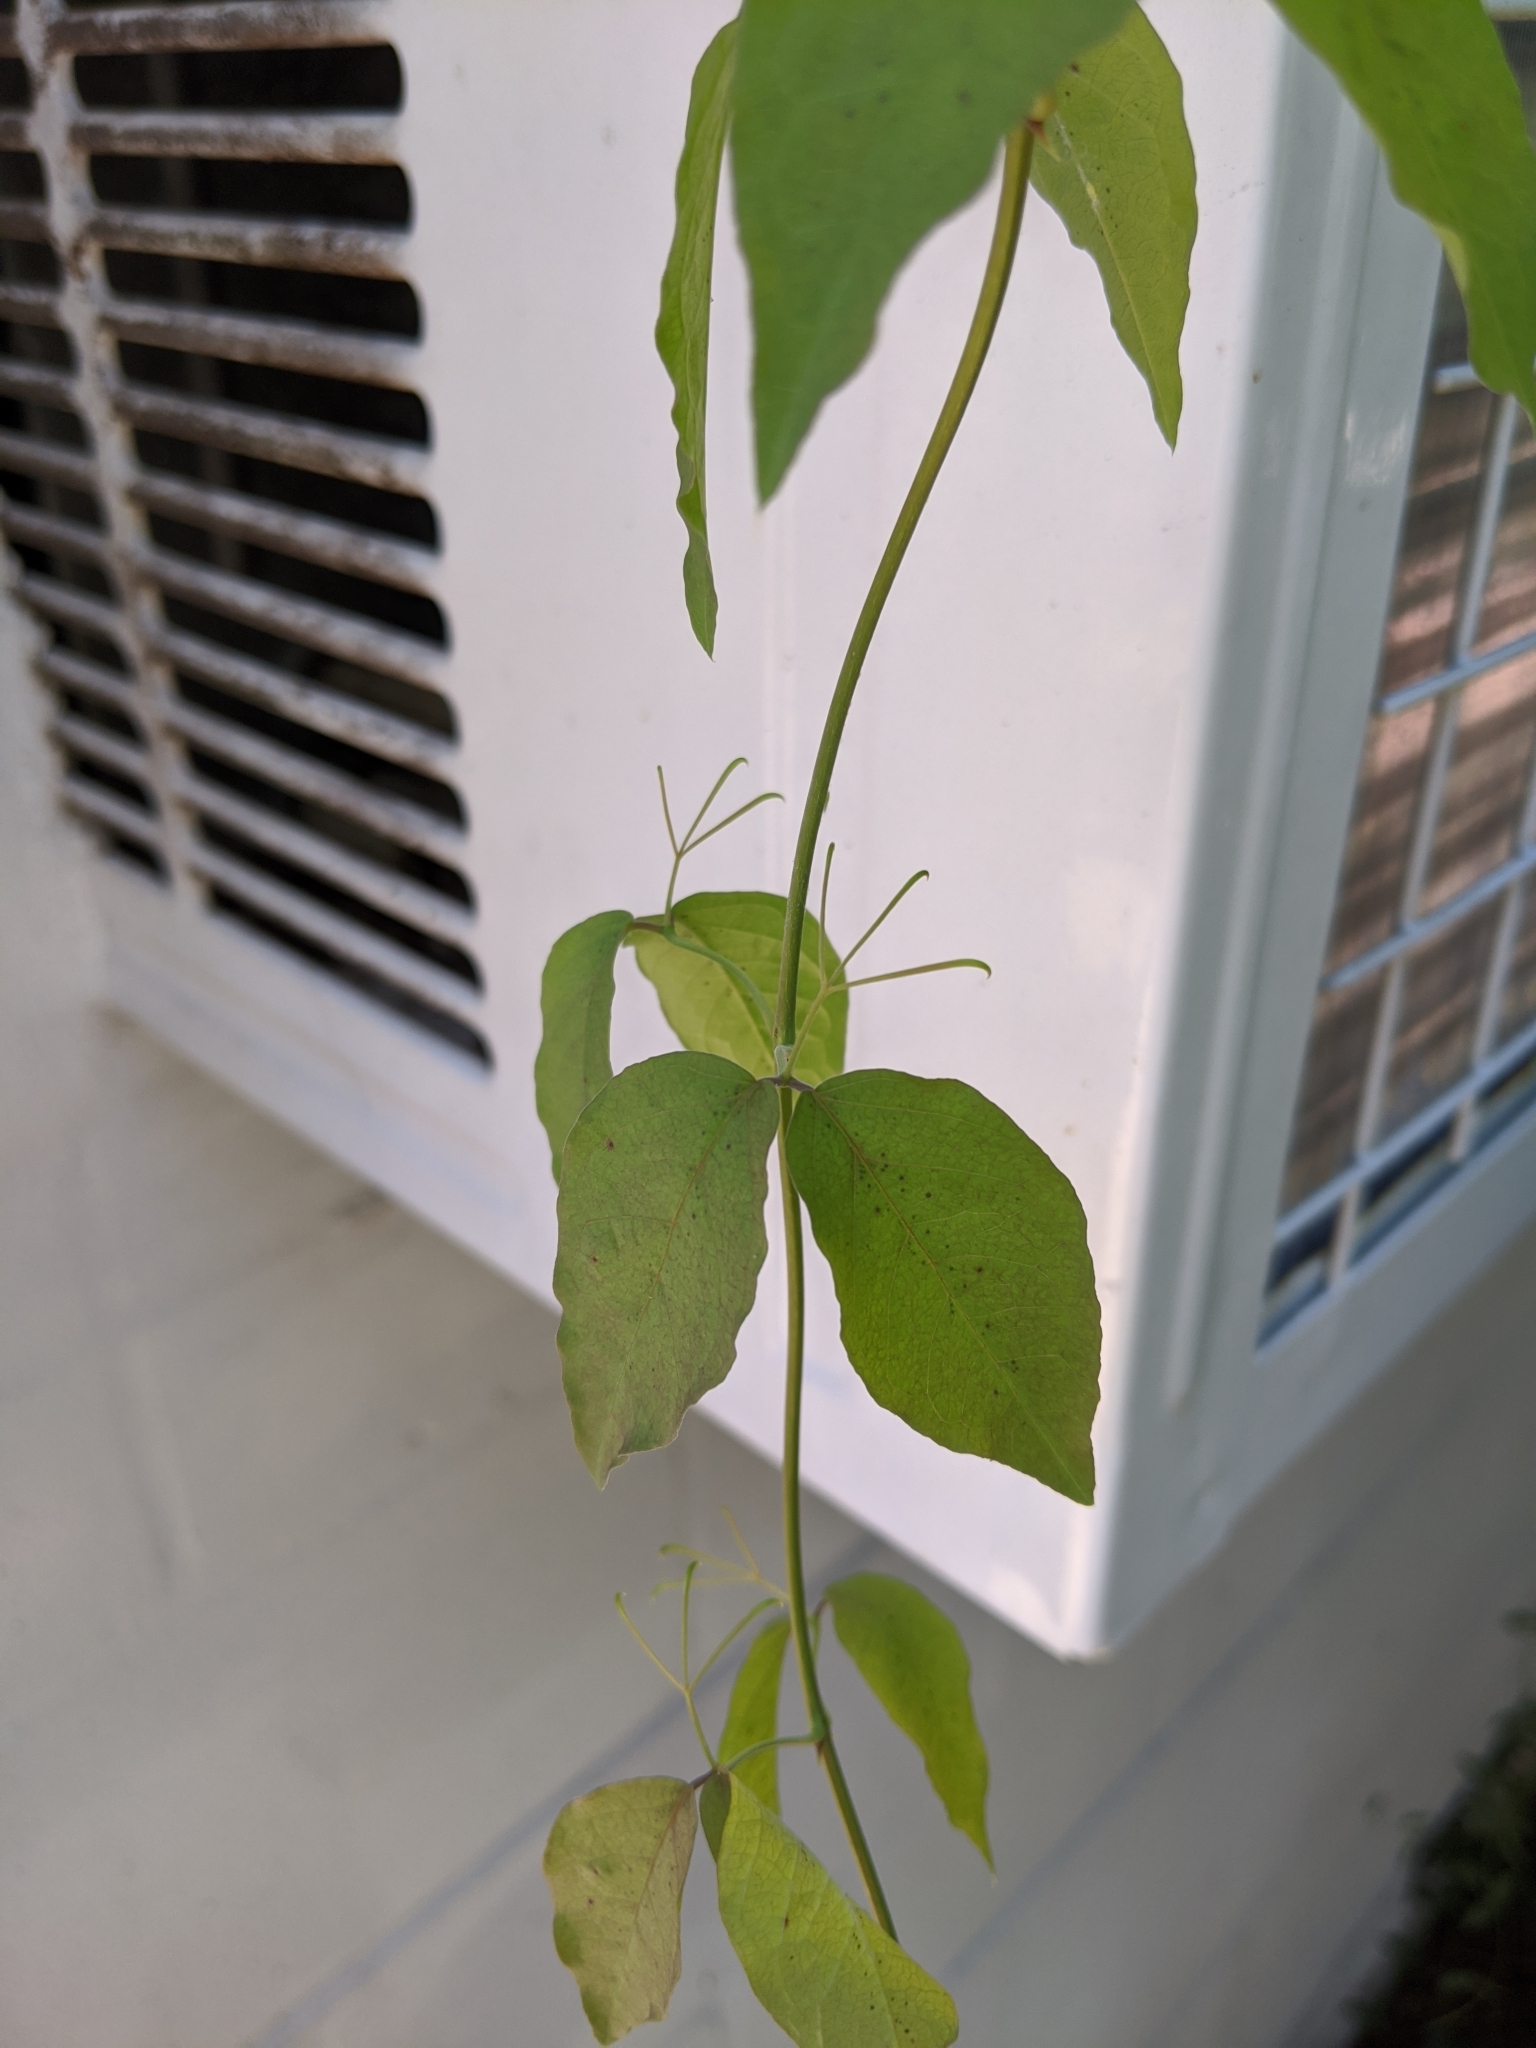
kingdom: Plantae
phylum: Tracheophyta
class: Magnoliopsida
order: Lamiales
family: Bignoniaceae
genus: Dolichandra
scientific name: Dolichandra unguis-cati
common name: Catclaw vine
